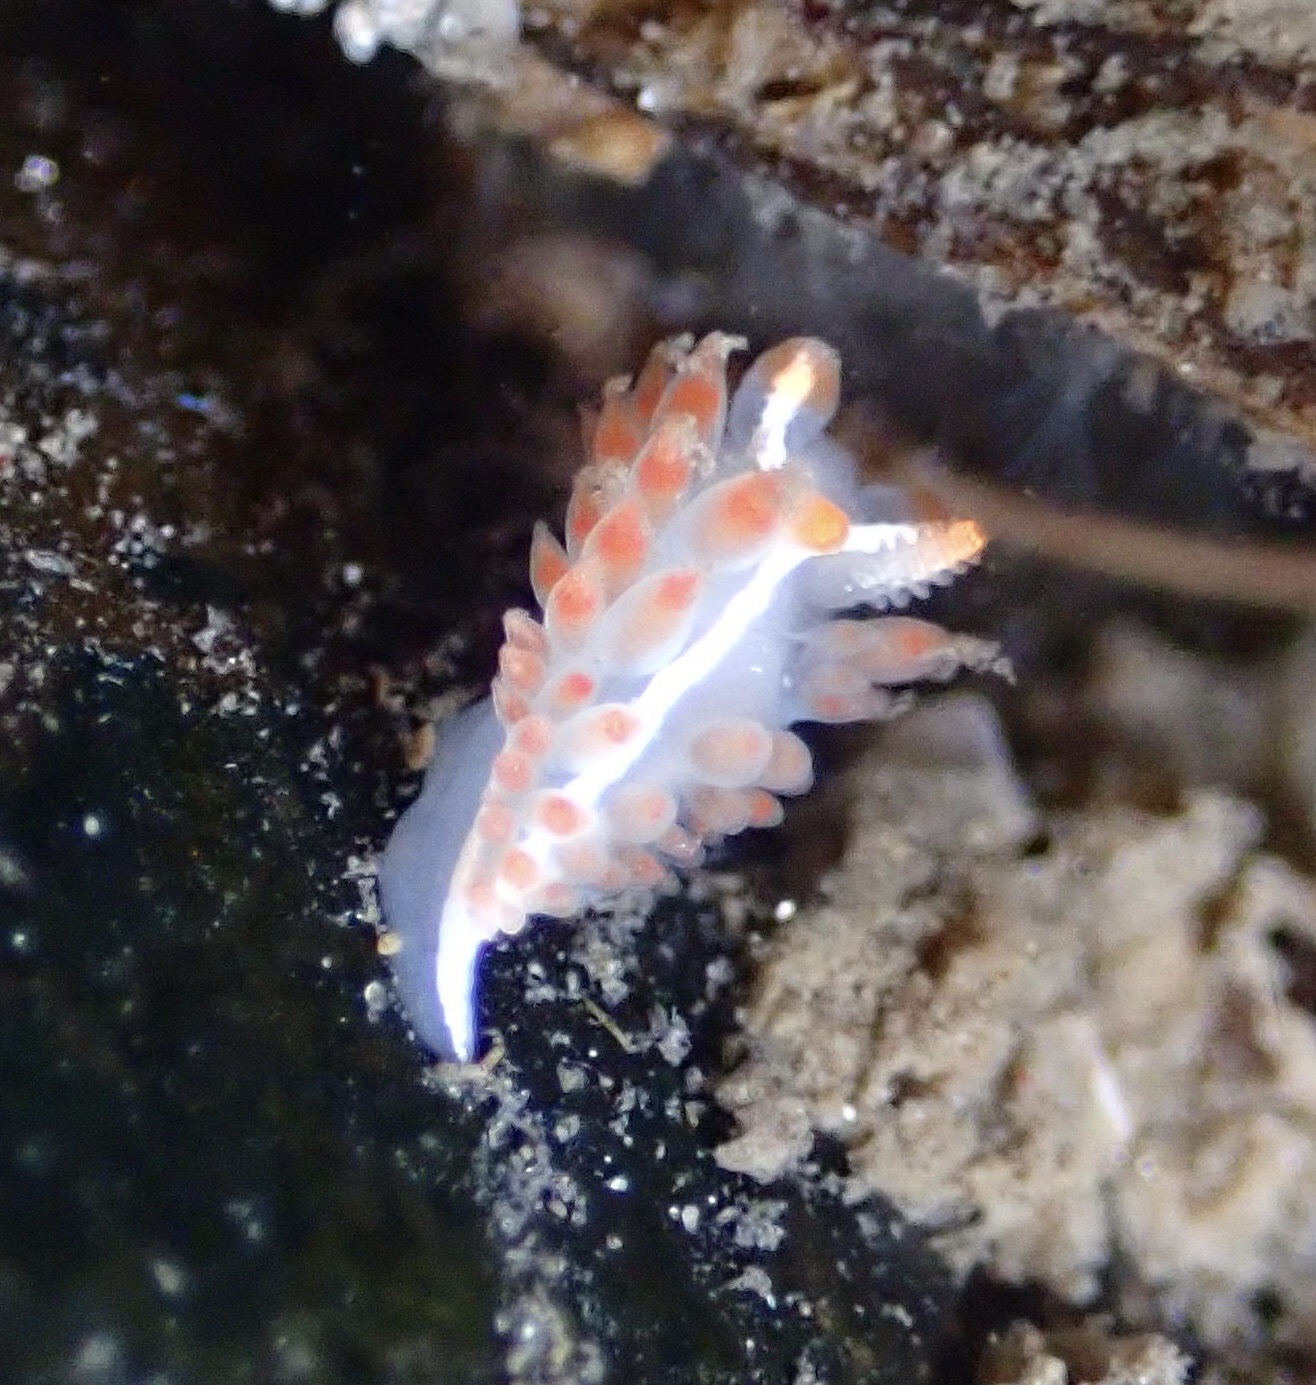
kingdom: Animalia
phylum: Mollusca
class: Gastropoda
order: Nudibranchia
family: Coryphellidae
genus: Coryphella
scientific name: Coryphella trilineata
